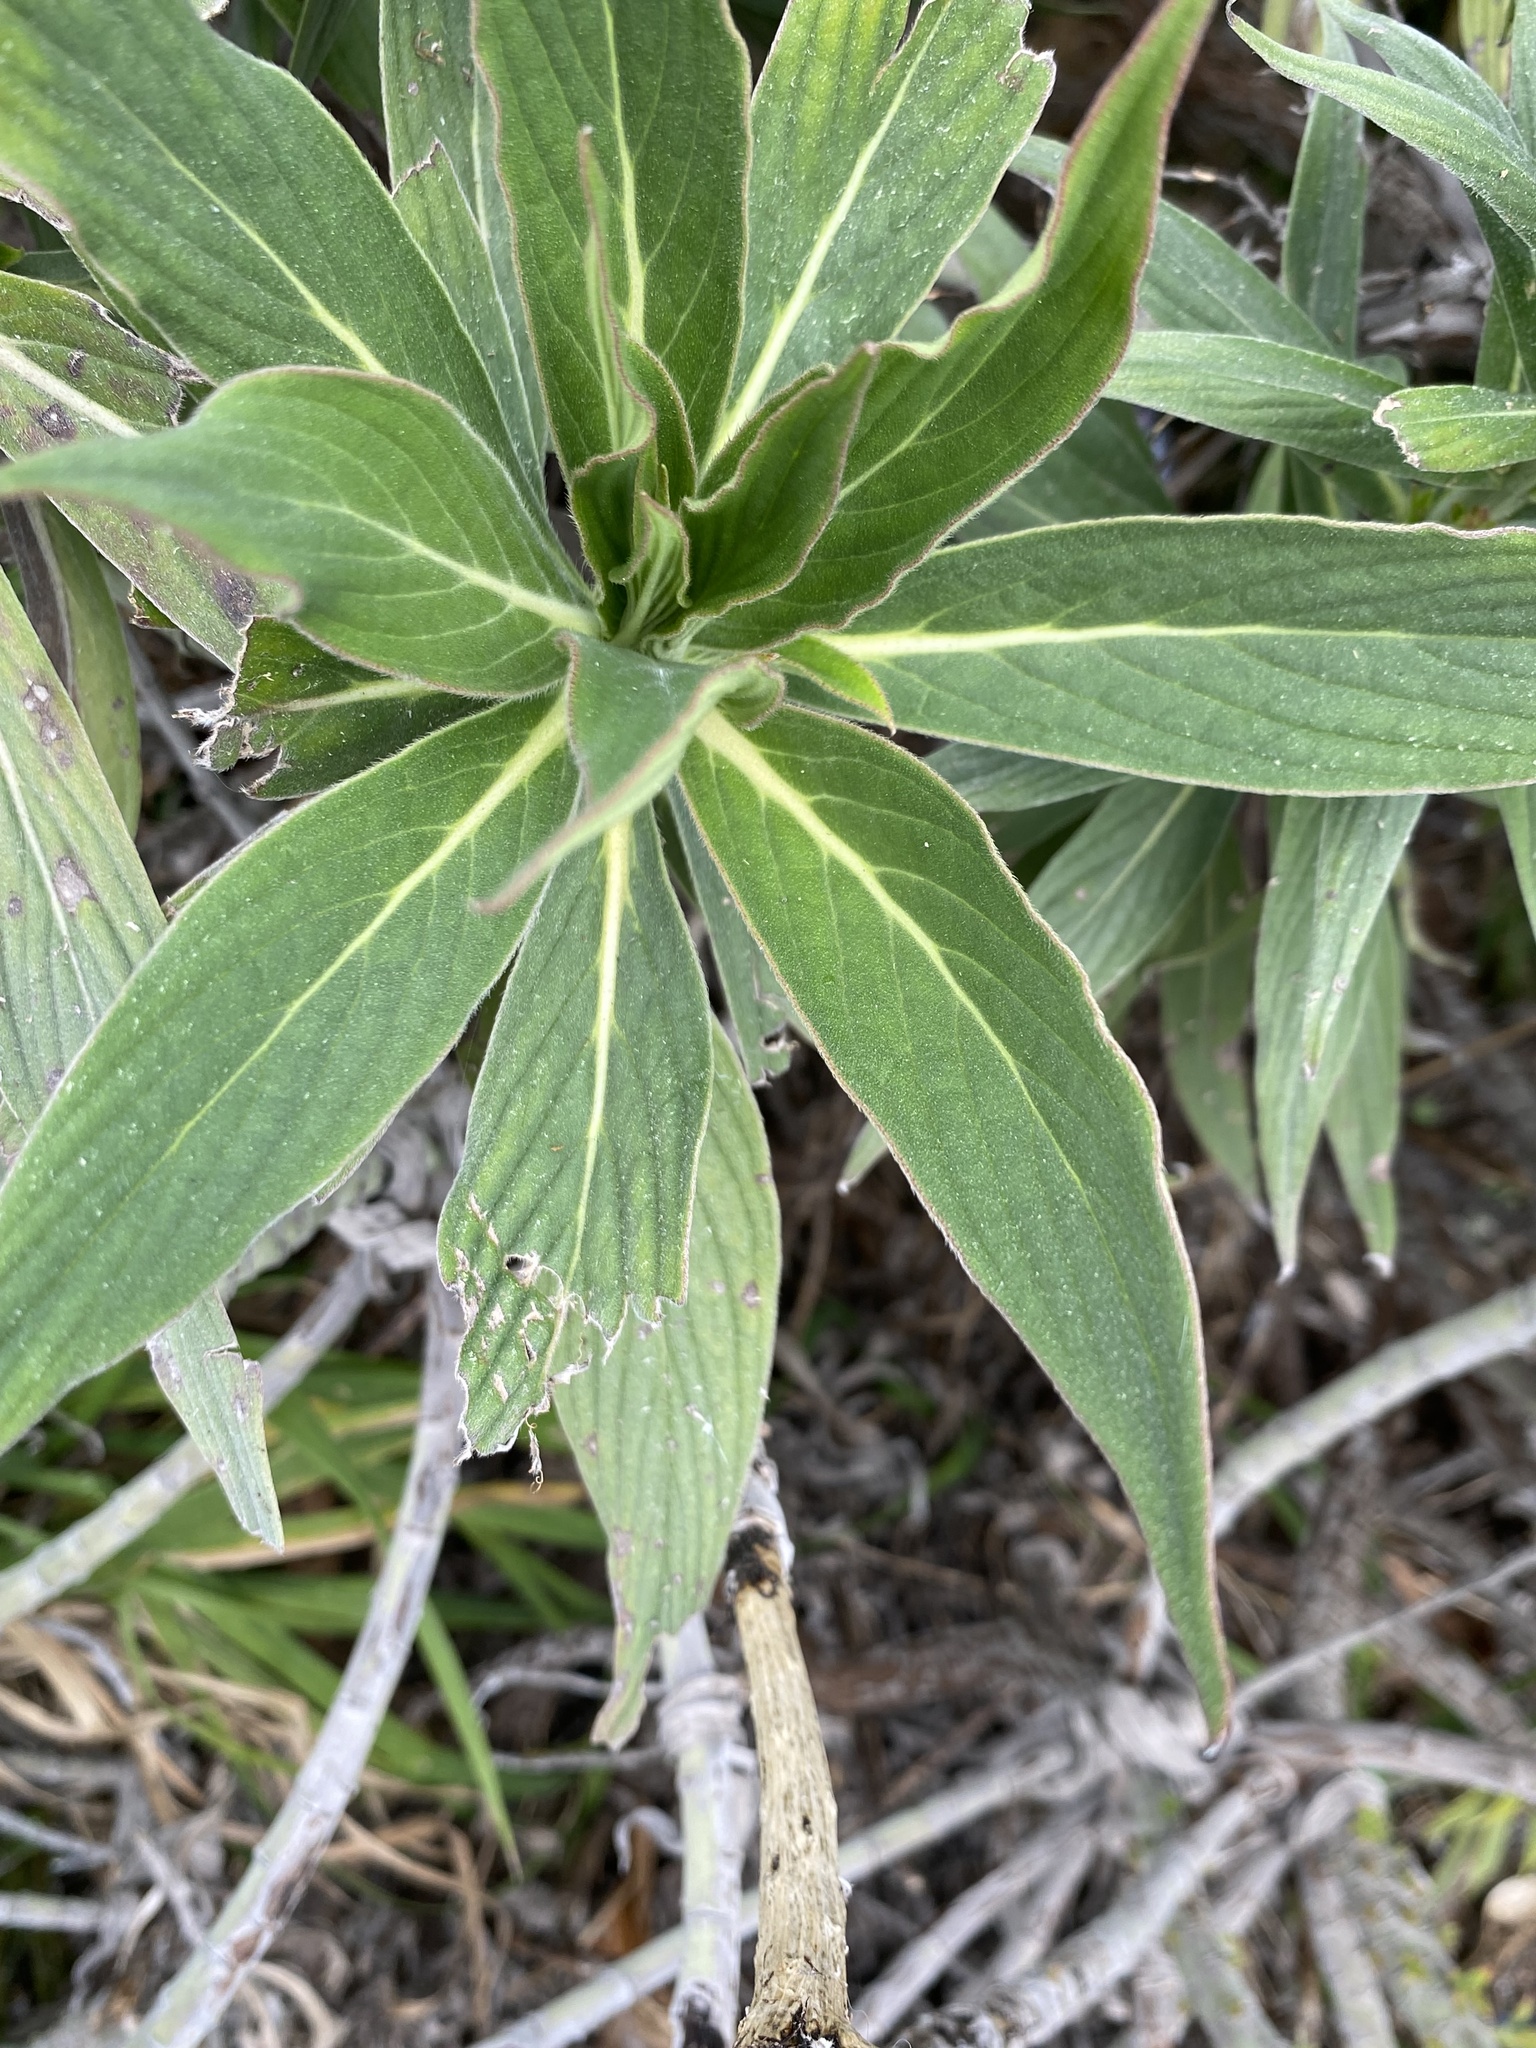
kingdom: Plantae
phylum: Tracheophyta
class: Magnoliopsida
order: Boraginales
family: Boraginaceae
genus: Echium
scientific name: Echium candicans
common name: Pride of madeira
